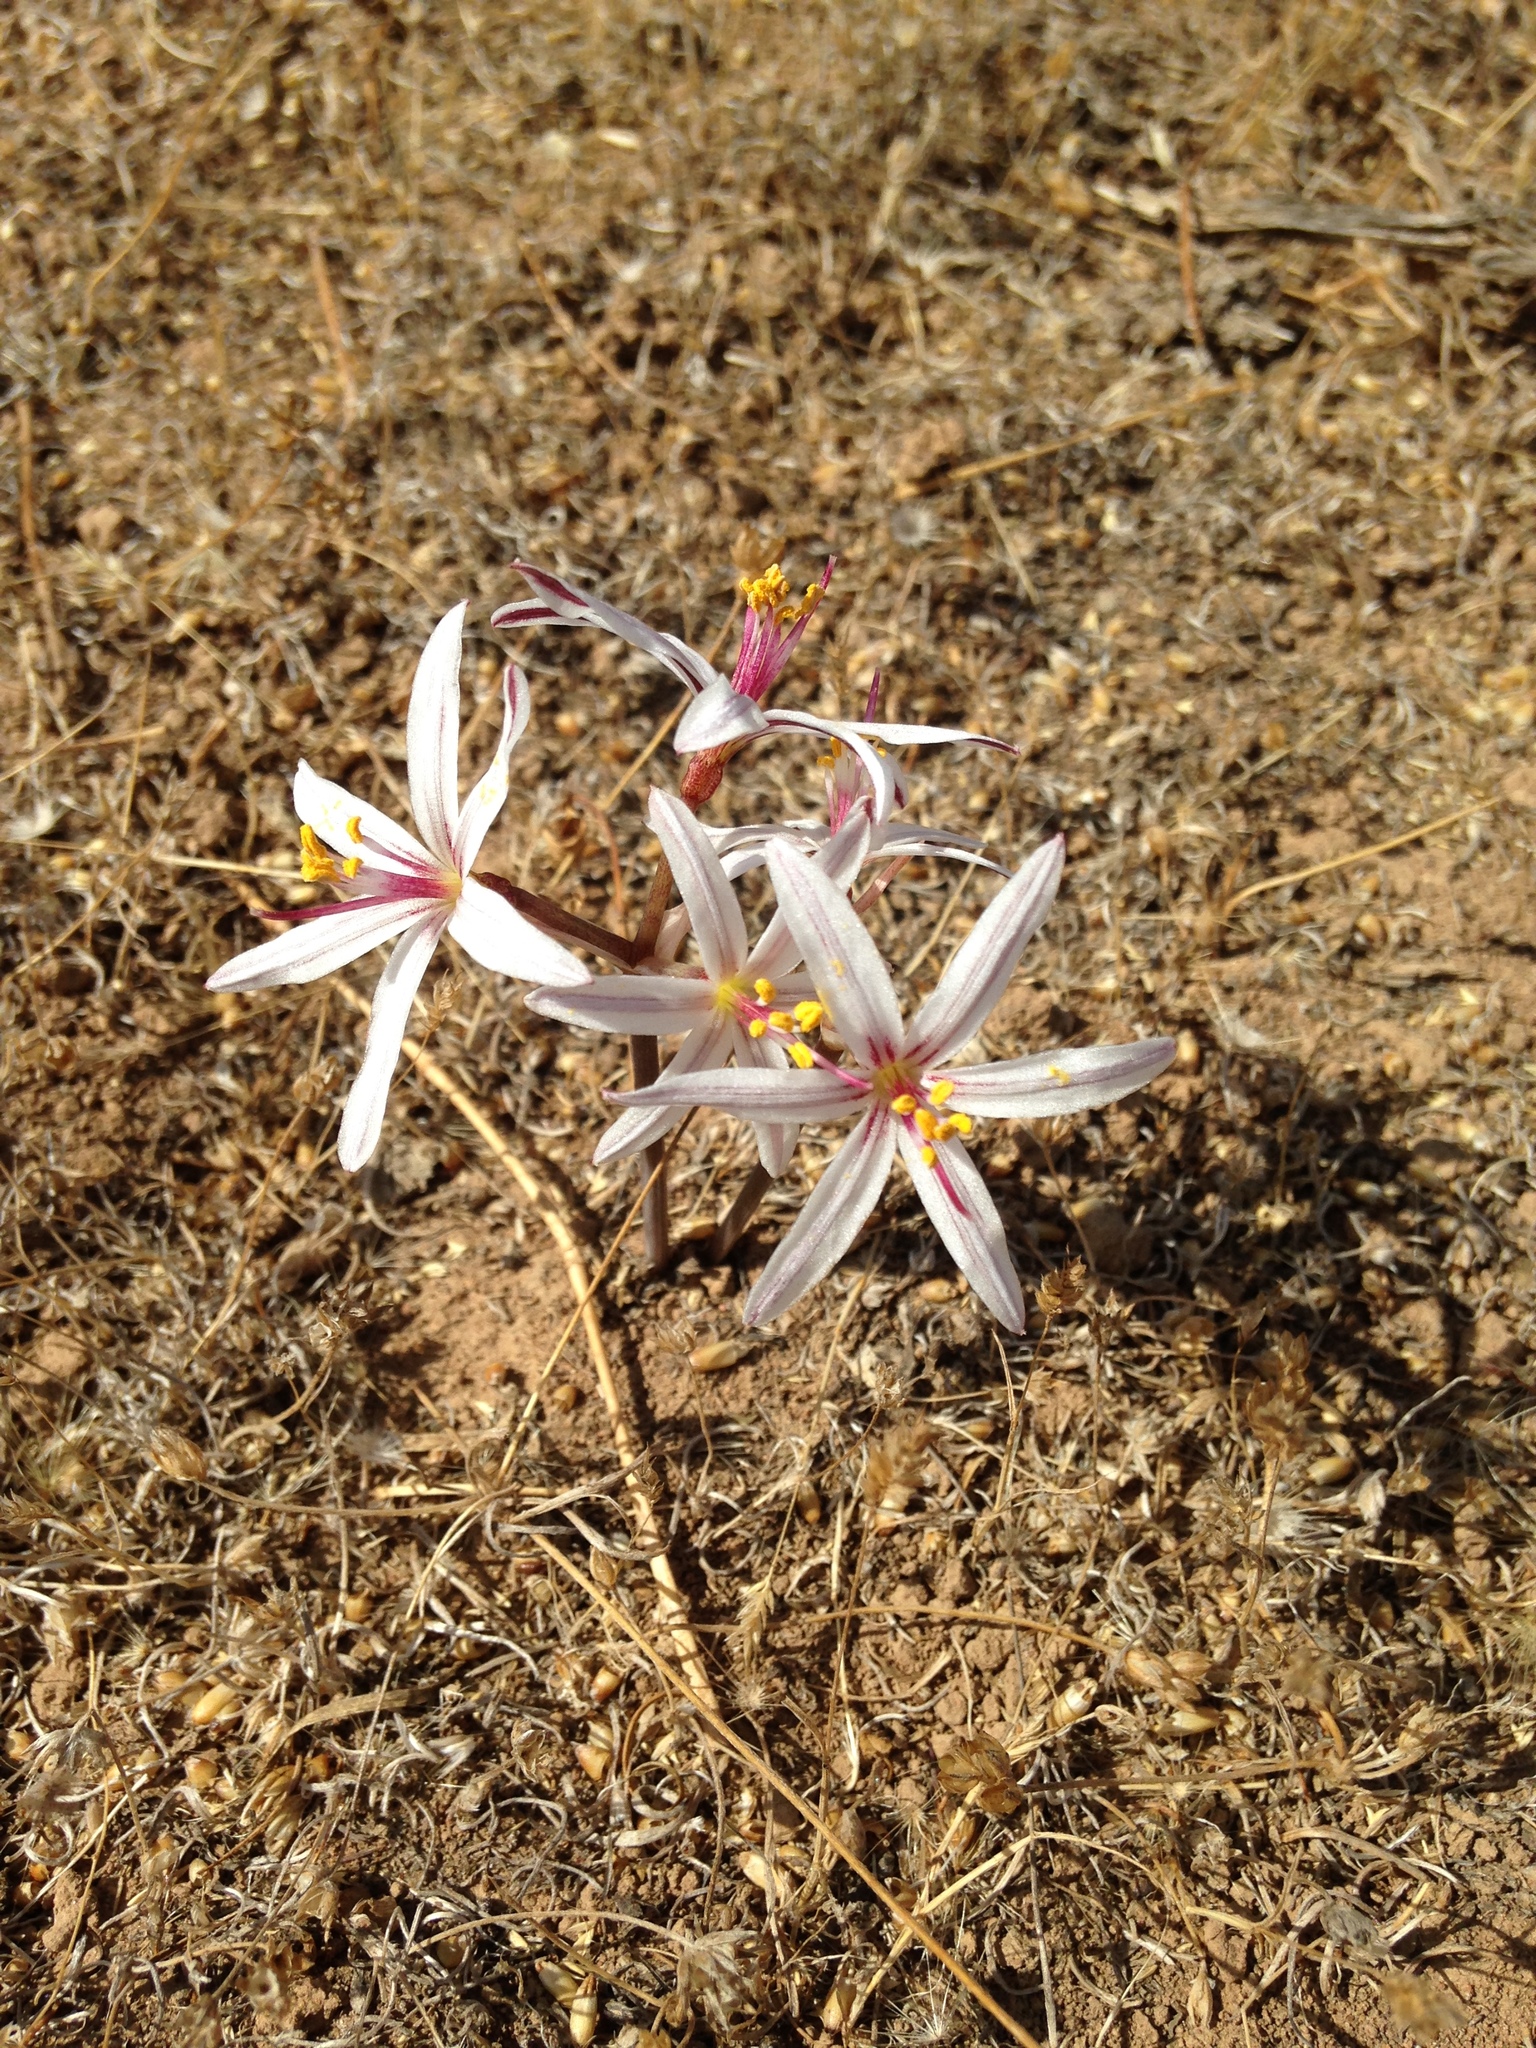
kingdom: Plantae
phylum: Tracheophyta
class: Liliopsida
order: Asparagales
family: Amaryllidaceae
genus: Traubia
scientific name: Traubia modesta
